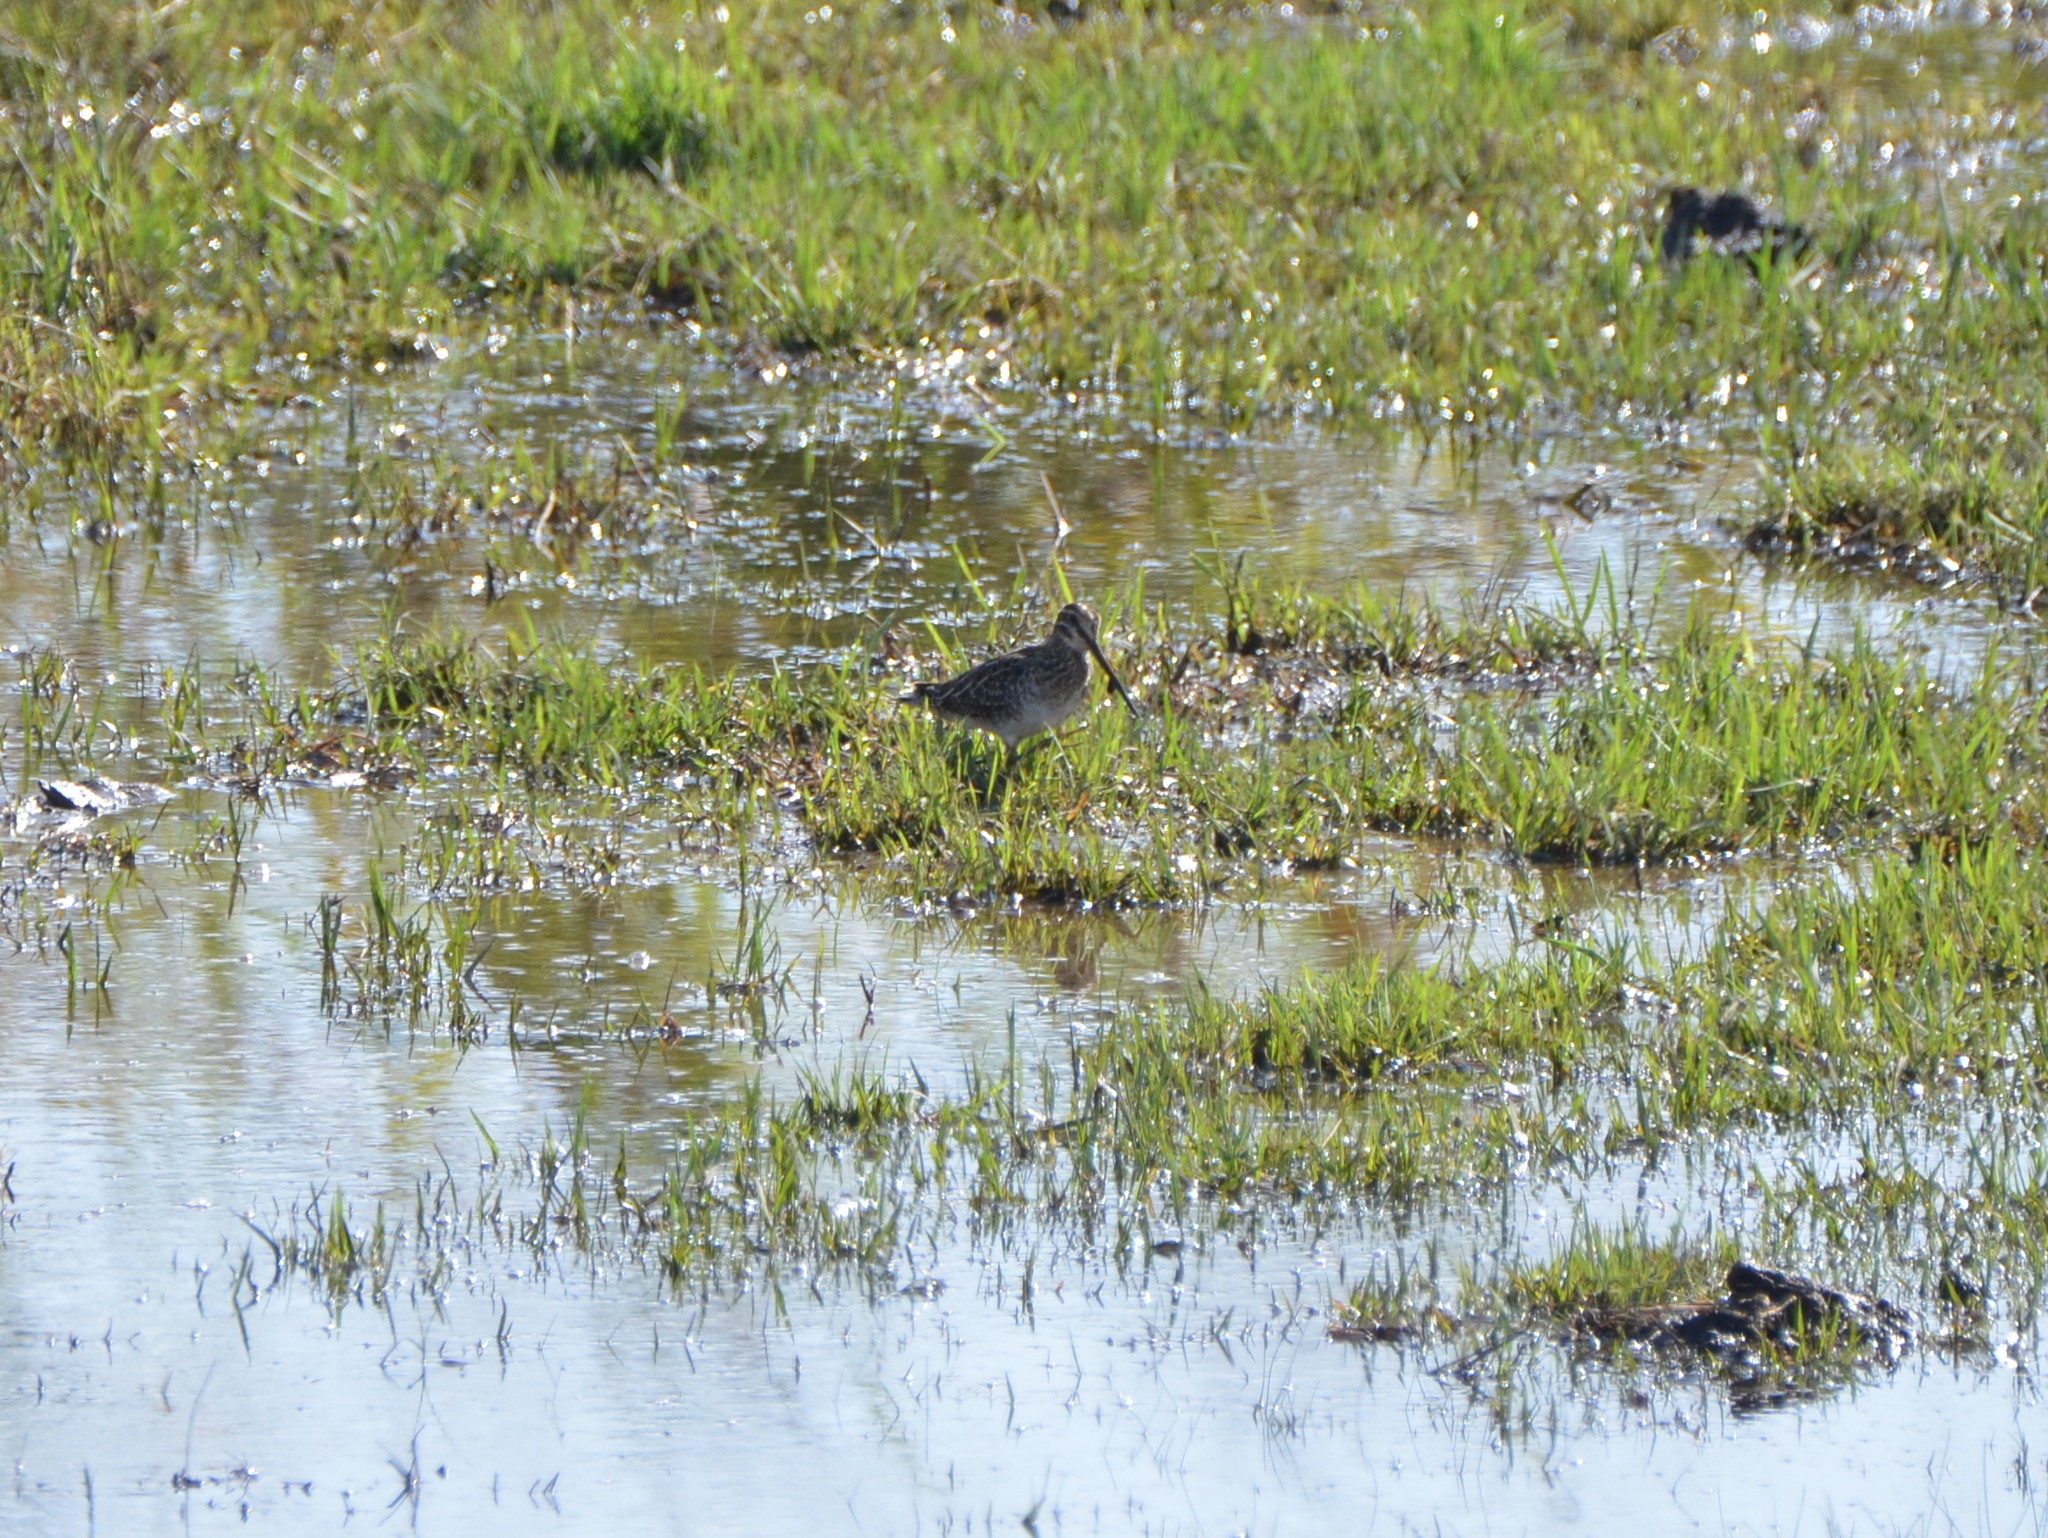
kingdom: Animalia
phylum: Chordata
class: Aves
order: Charadriiformes
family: Scolopacidae
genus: Gallinago
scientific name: Gallinago delicata
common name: Wilson's snipe
